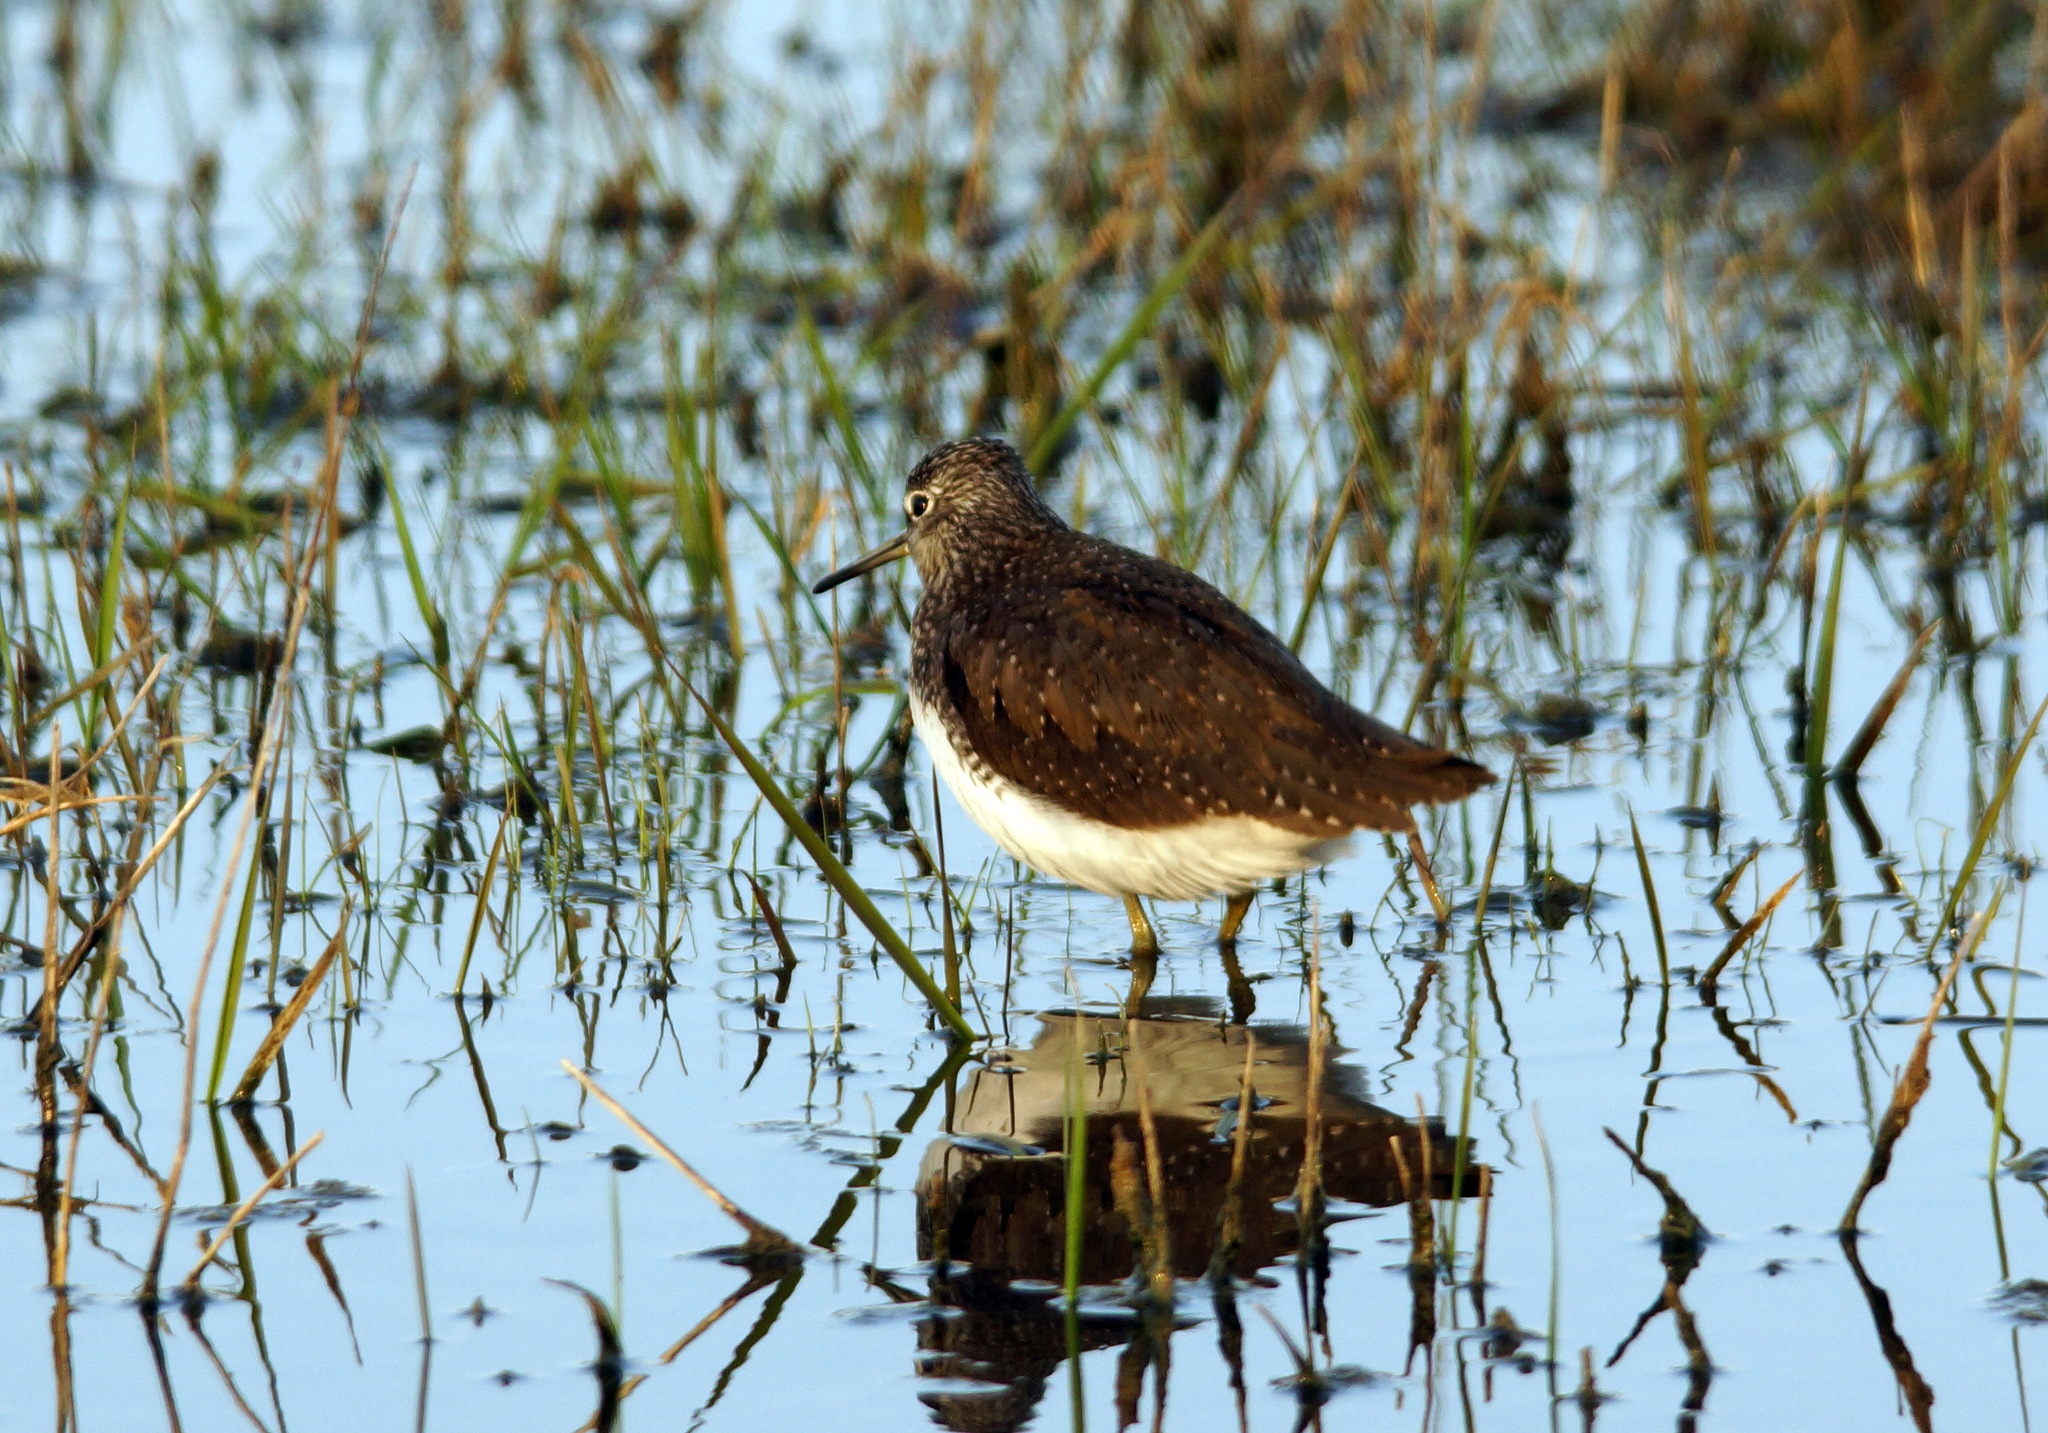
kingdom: Animalia
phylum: Chordata
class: Aves
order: Charadriiformes
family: Scolopacidae
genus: Tringa
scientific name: Tringa ochropus
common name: Green sandpiper
